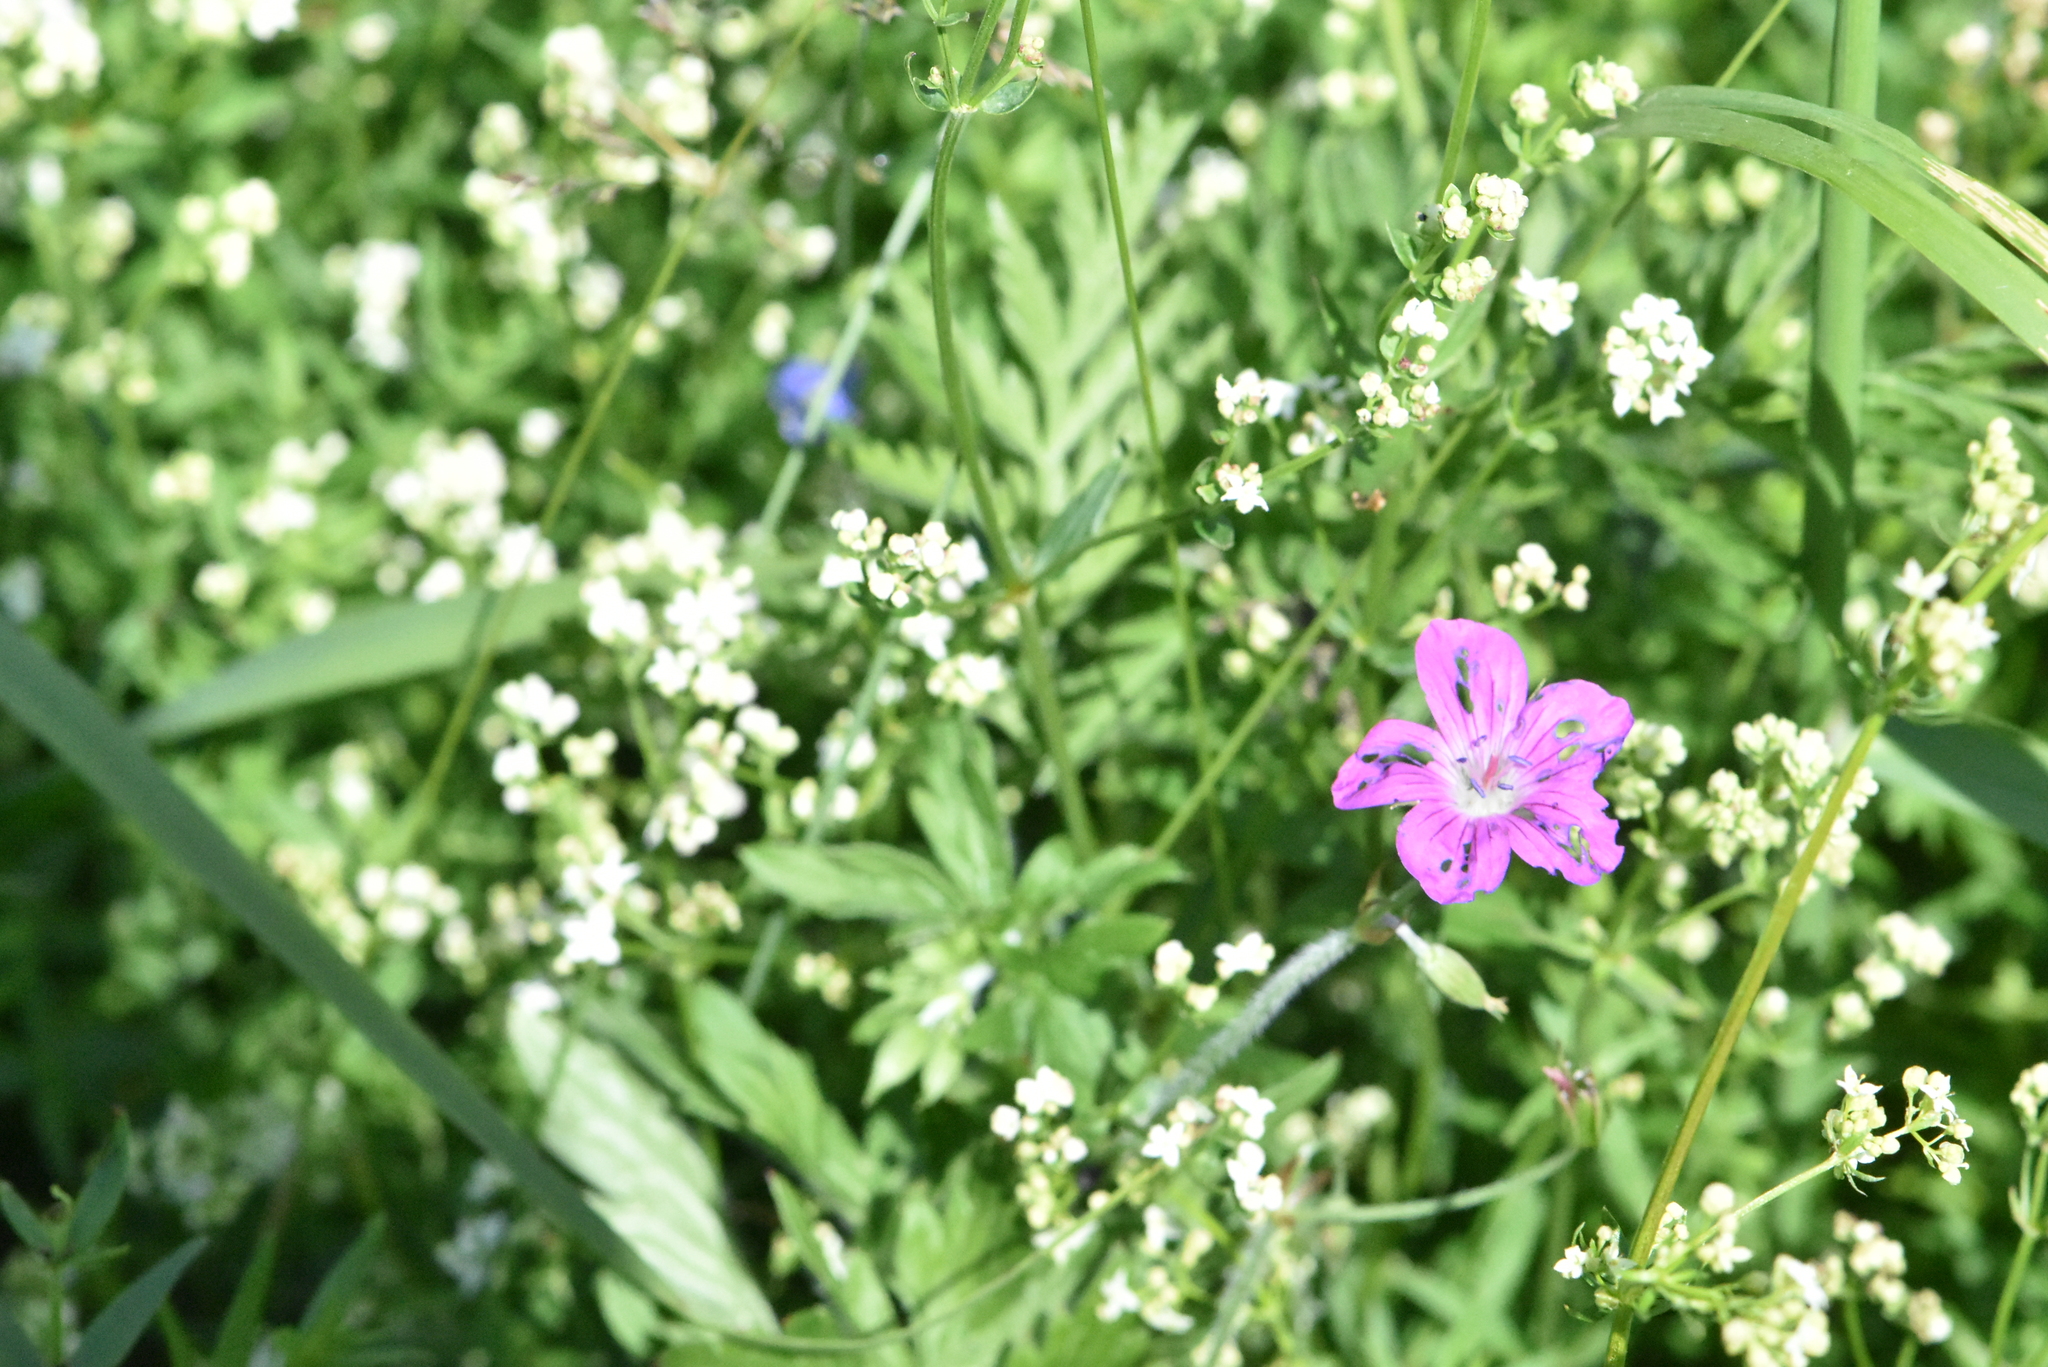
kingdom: Plantae
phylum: Tracheophyta
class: Magnoliopsida
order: Geraniales
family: Geraniaceae
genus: Geranium
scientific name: Geranium palustre
